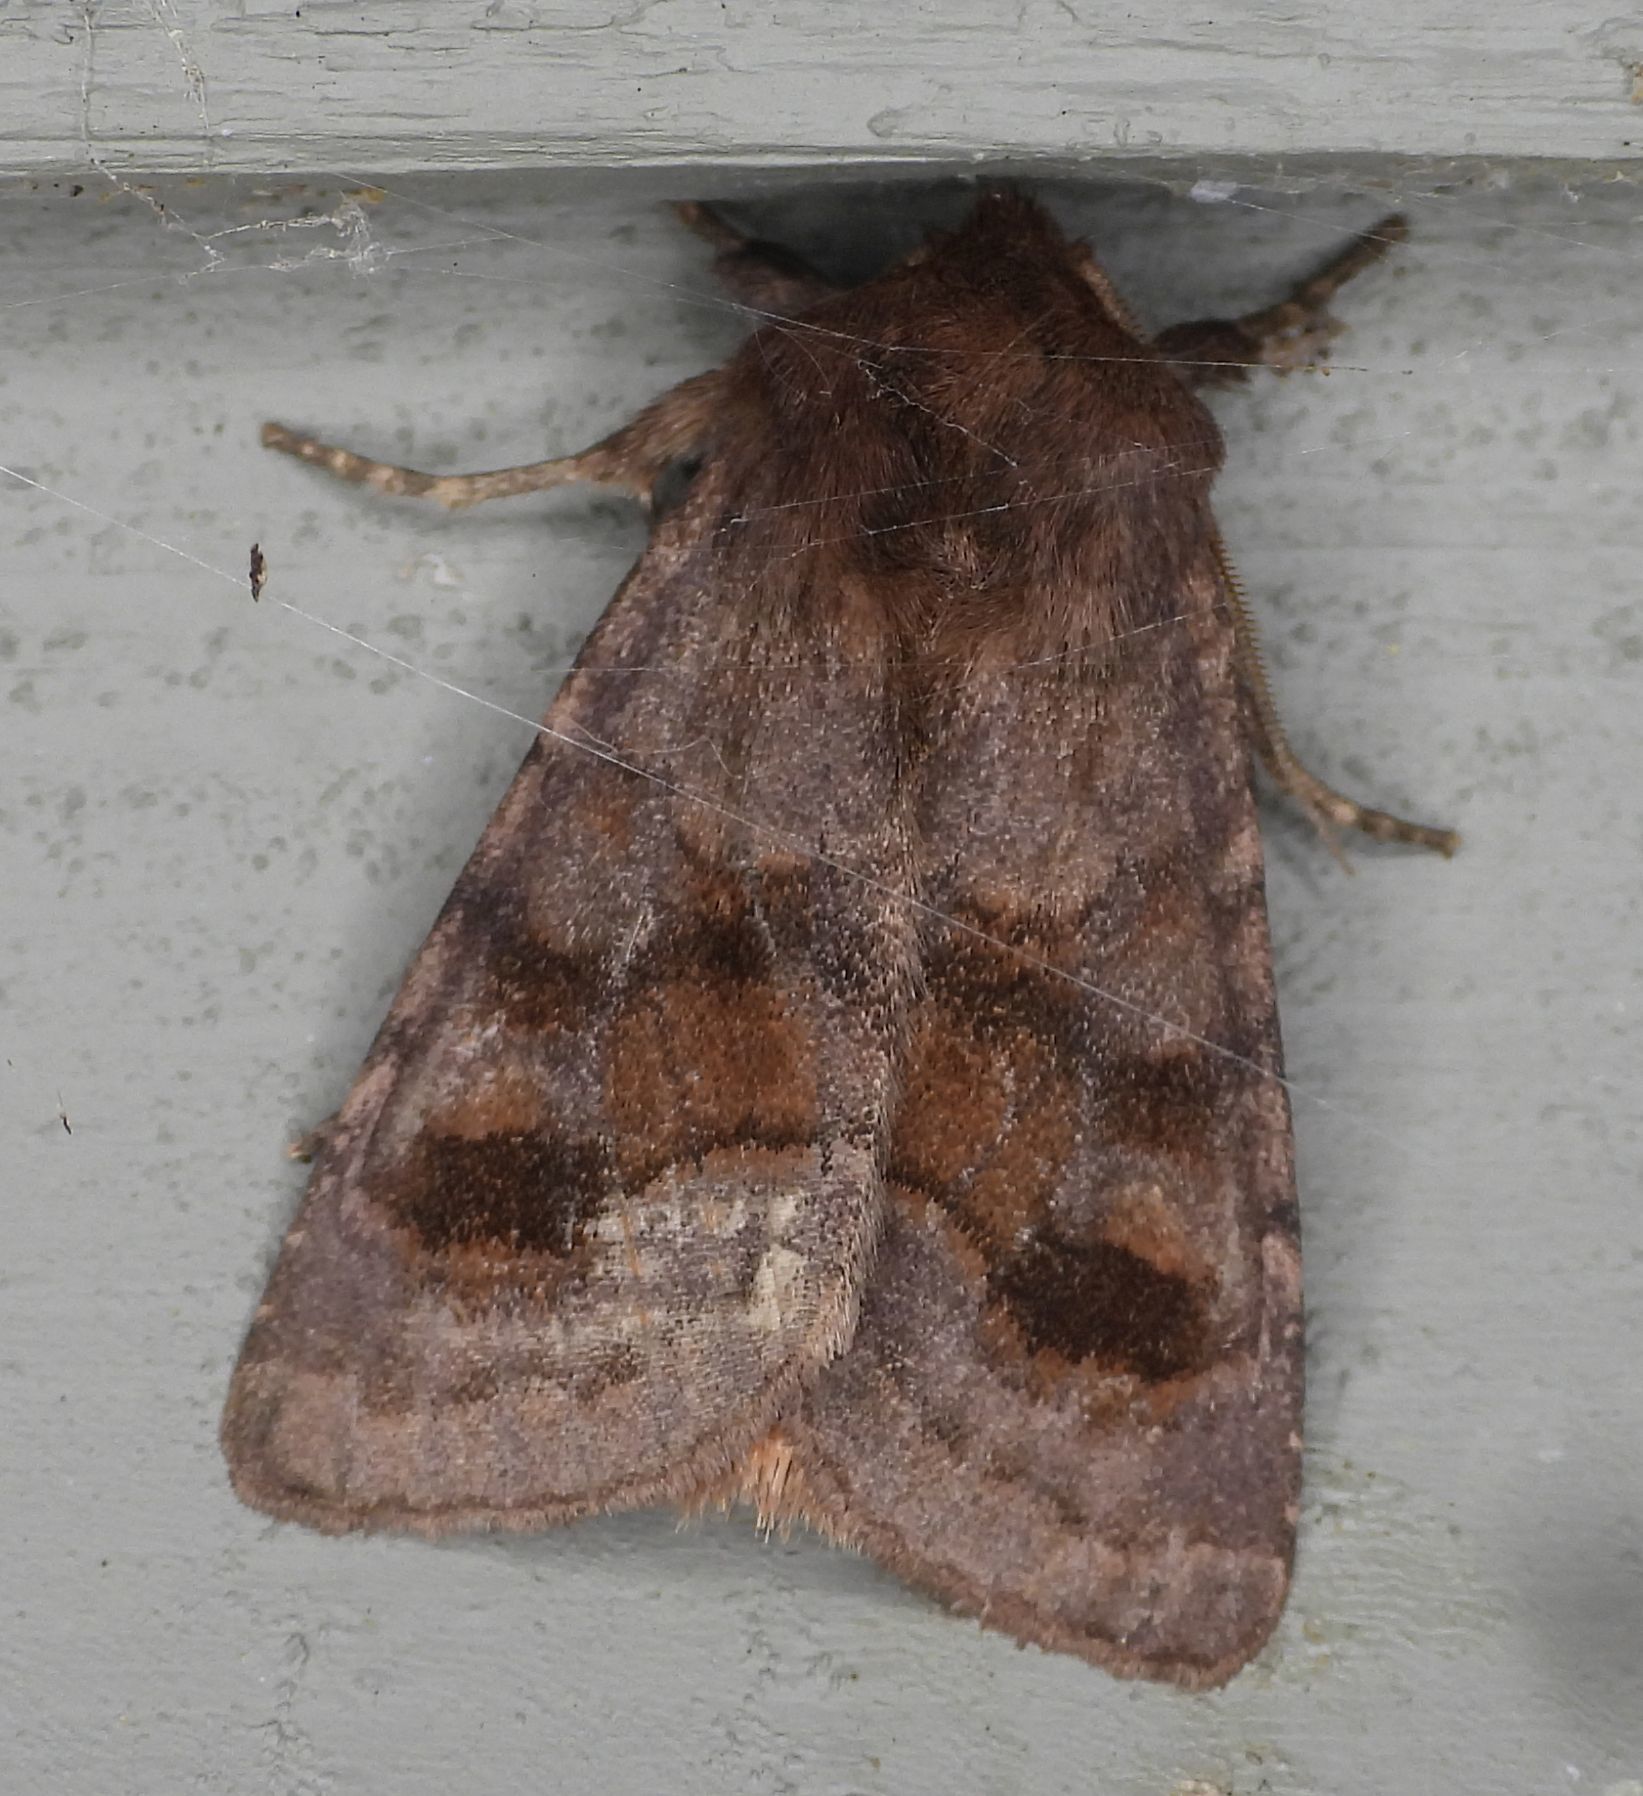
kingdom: Animalia
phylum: Arthropoda
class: Insecta
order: Lepidoptera
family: Noctuidae
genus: Nephelodes
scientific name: Nephelodes minians
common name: Bronzed cutworm
